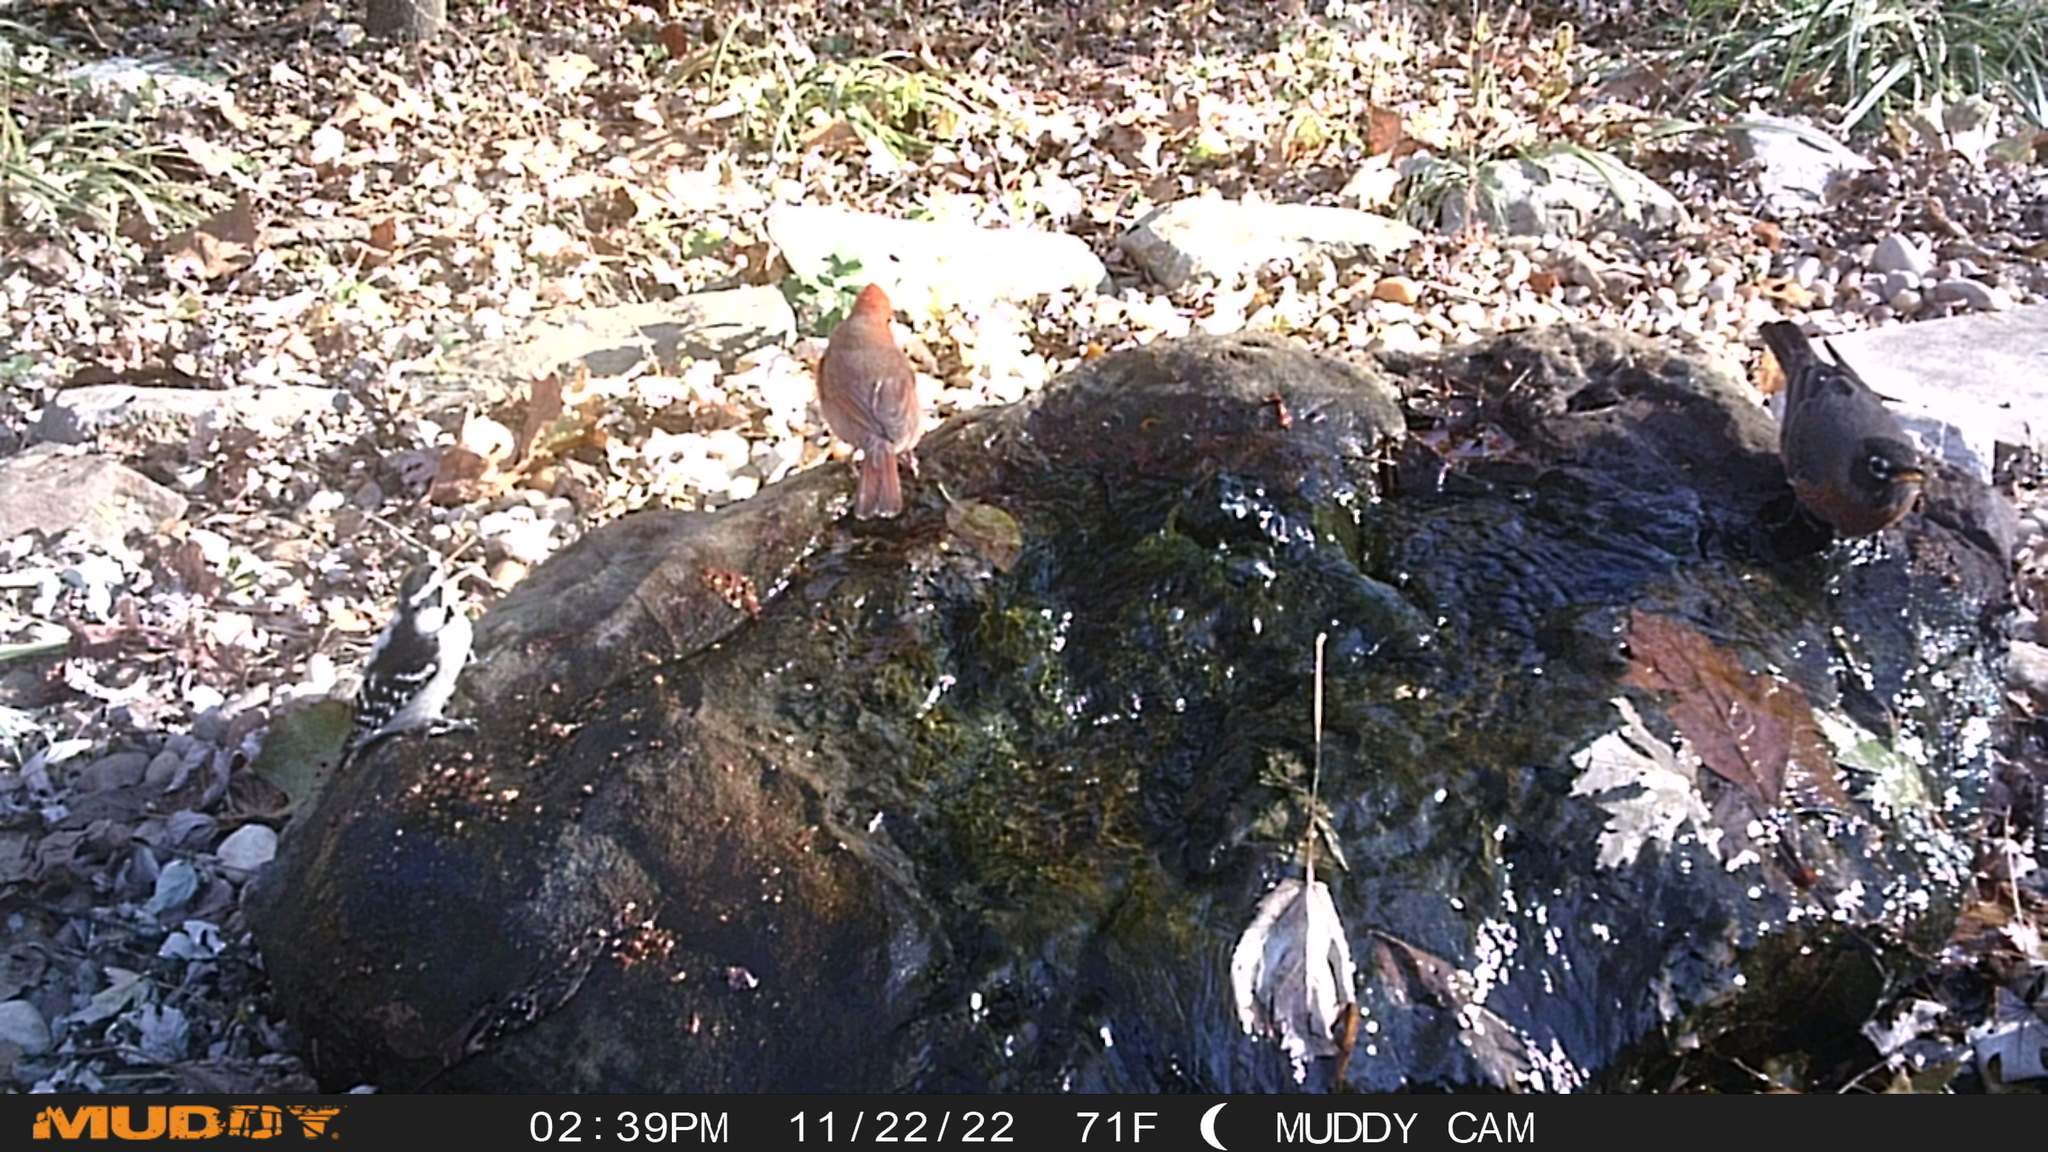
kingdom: Animalia
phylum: Chordata
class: Aves
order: Passeriformes
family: Turdidae
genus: Turdus
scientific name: Turdus migratorius
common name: American robin
